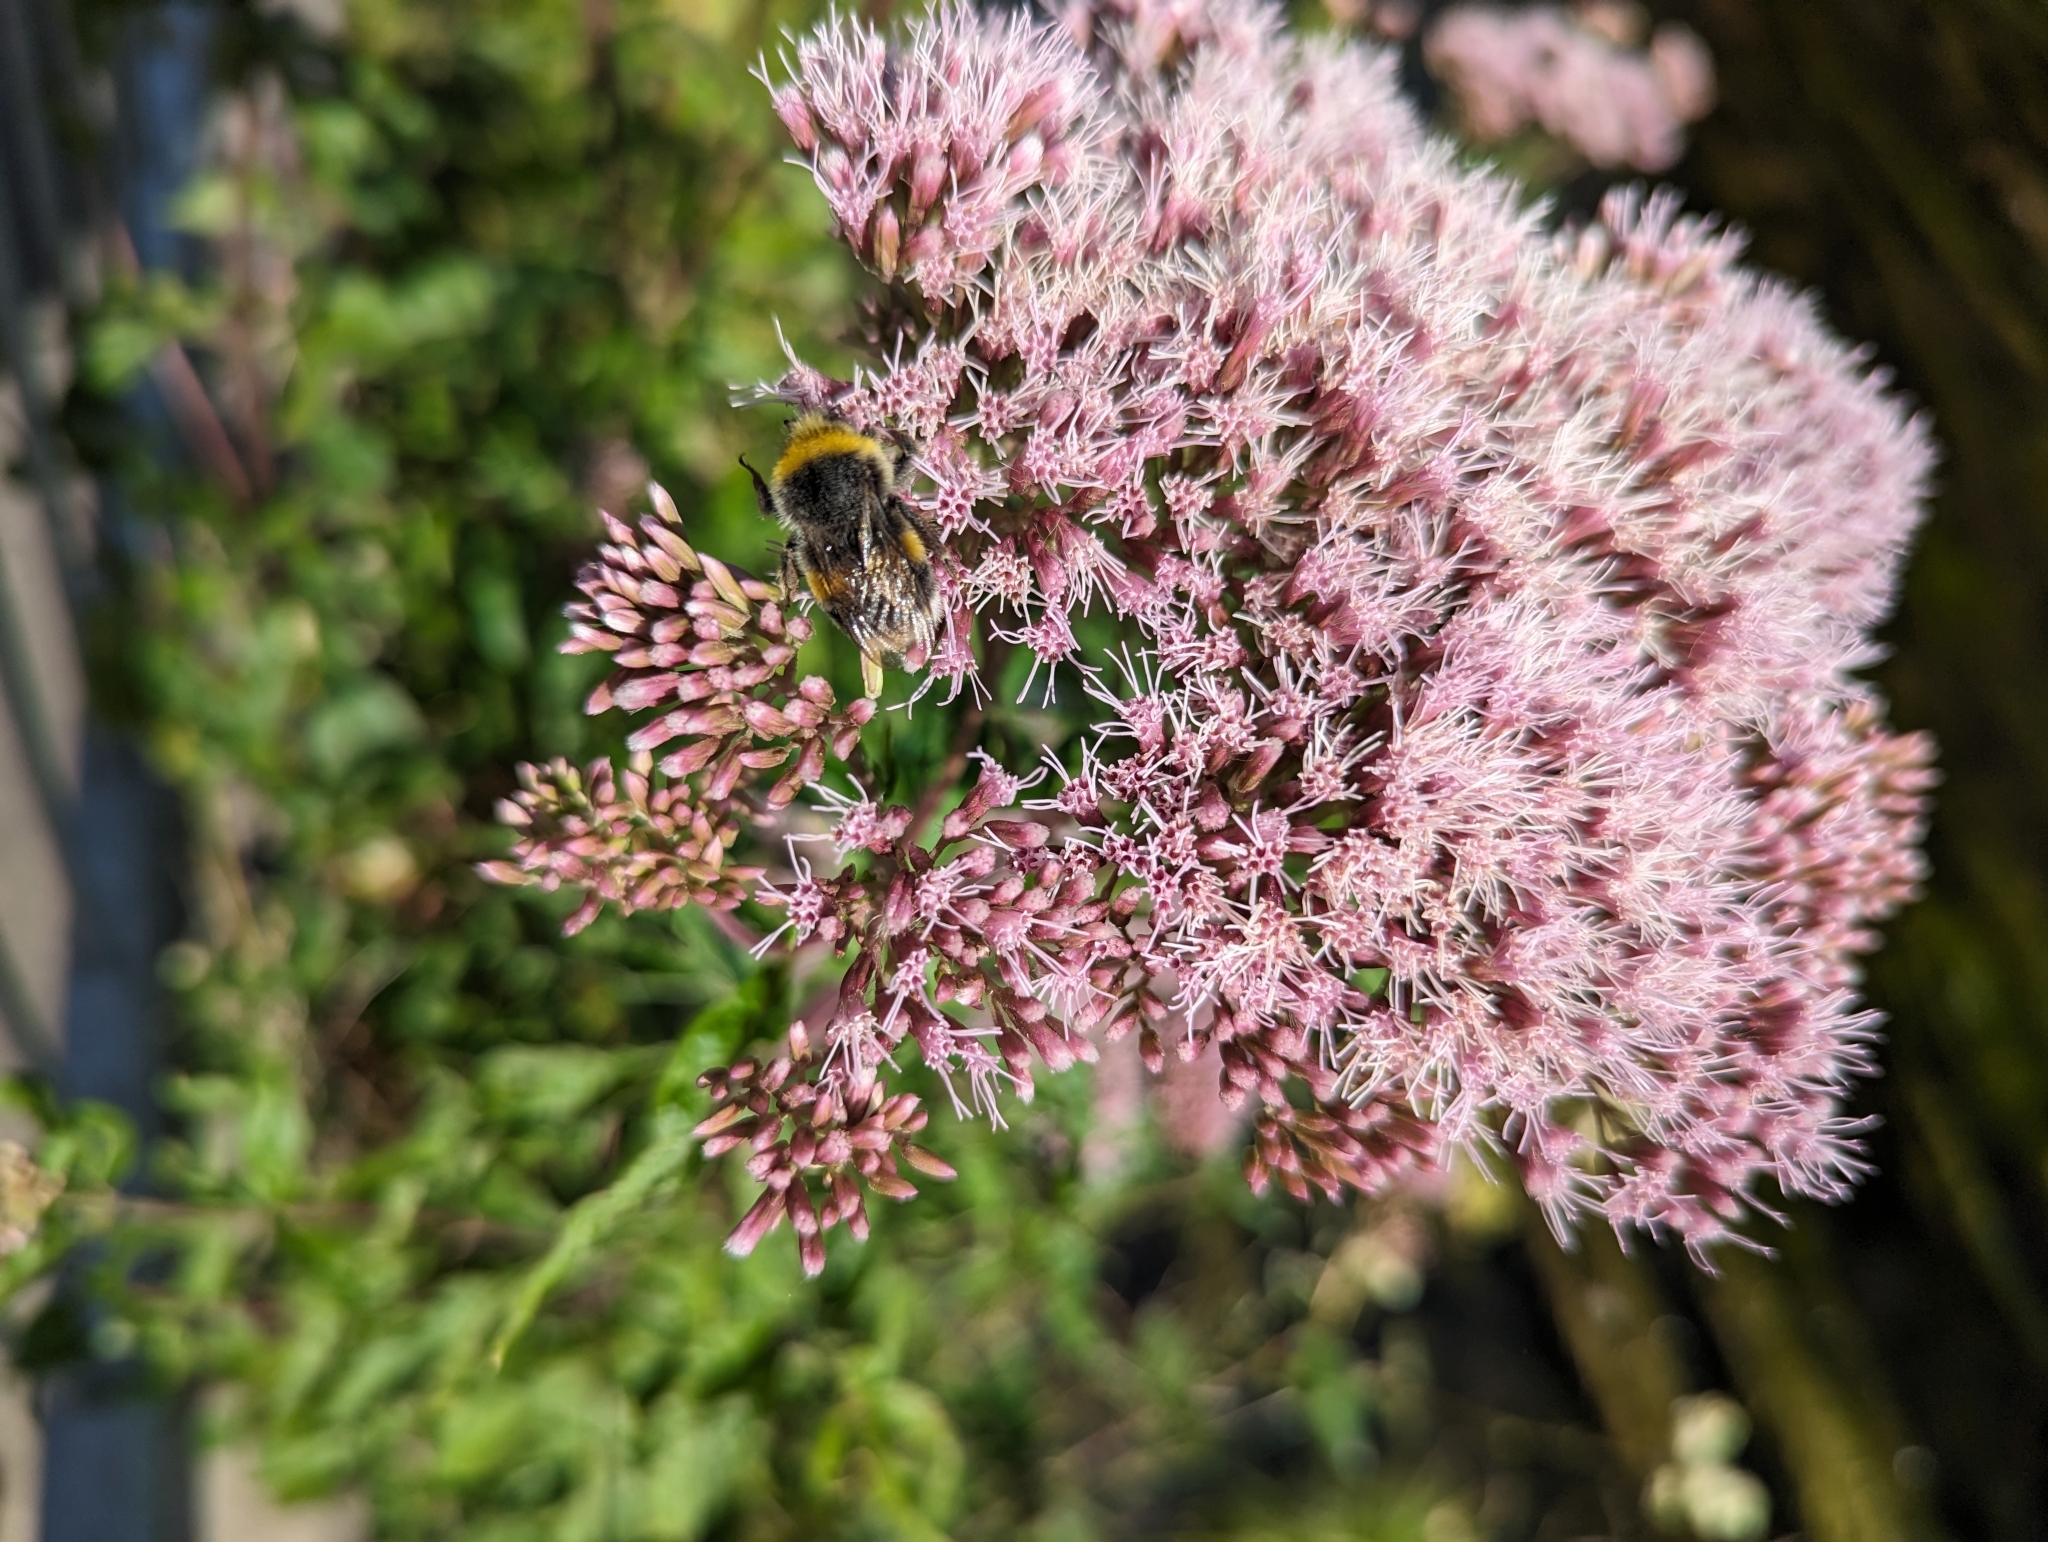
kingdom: Plantae
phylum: Tracheophyta
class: Magnoliopsida
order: Asterales
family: Asteraceae
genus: Eupatorium
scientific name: Eupatorium cannabinum
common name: Hemp-agrimony
